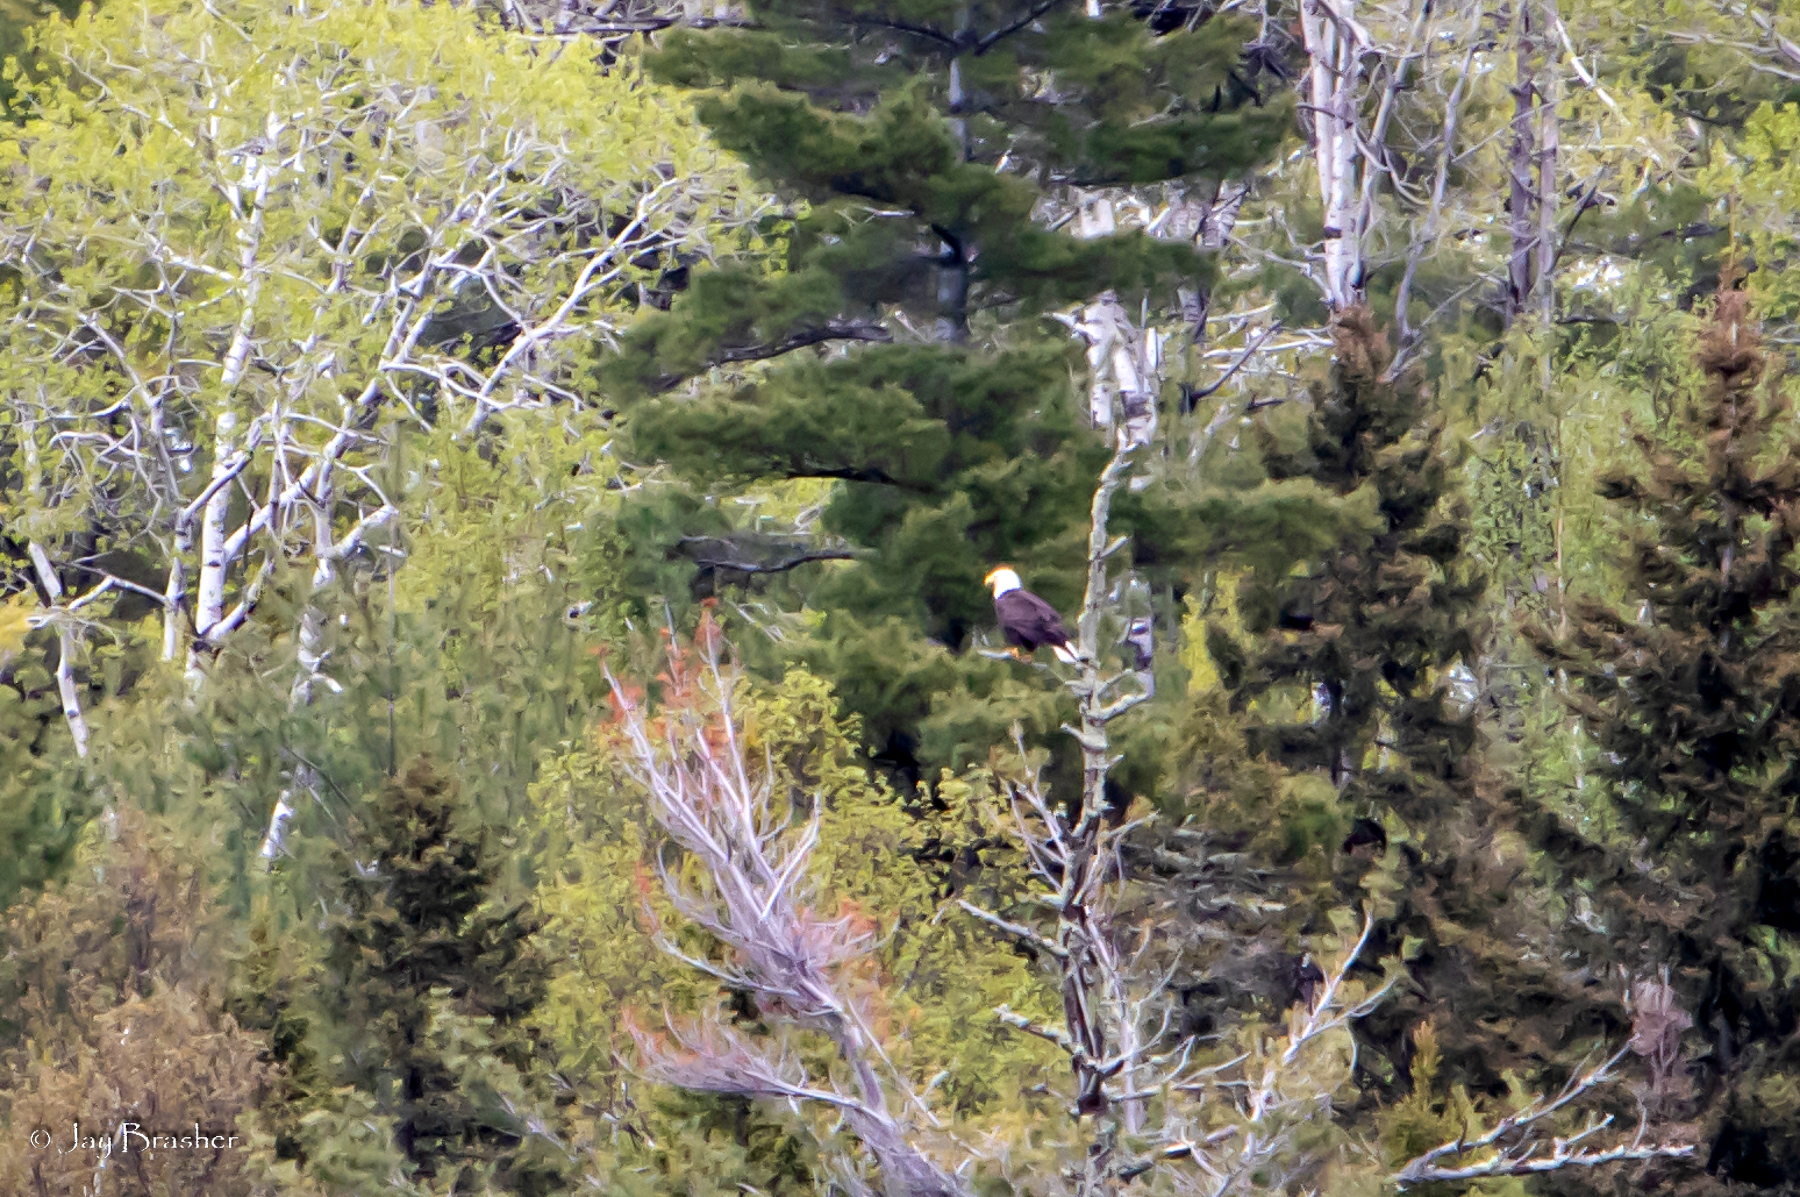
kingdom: Animalia
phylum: Chordata
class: Aves
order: Accipitriformes
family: Accipitridae
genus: Haliaeetus
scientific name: Haliaeetus leucocephalus
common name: Bald eagle
